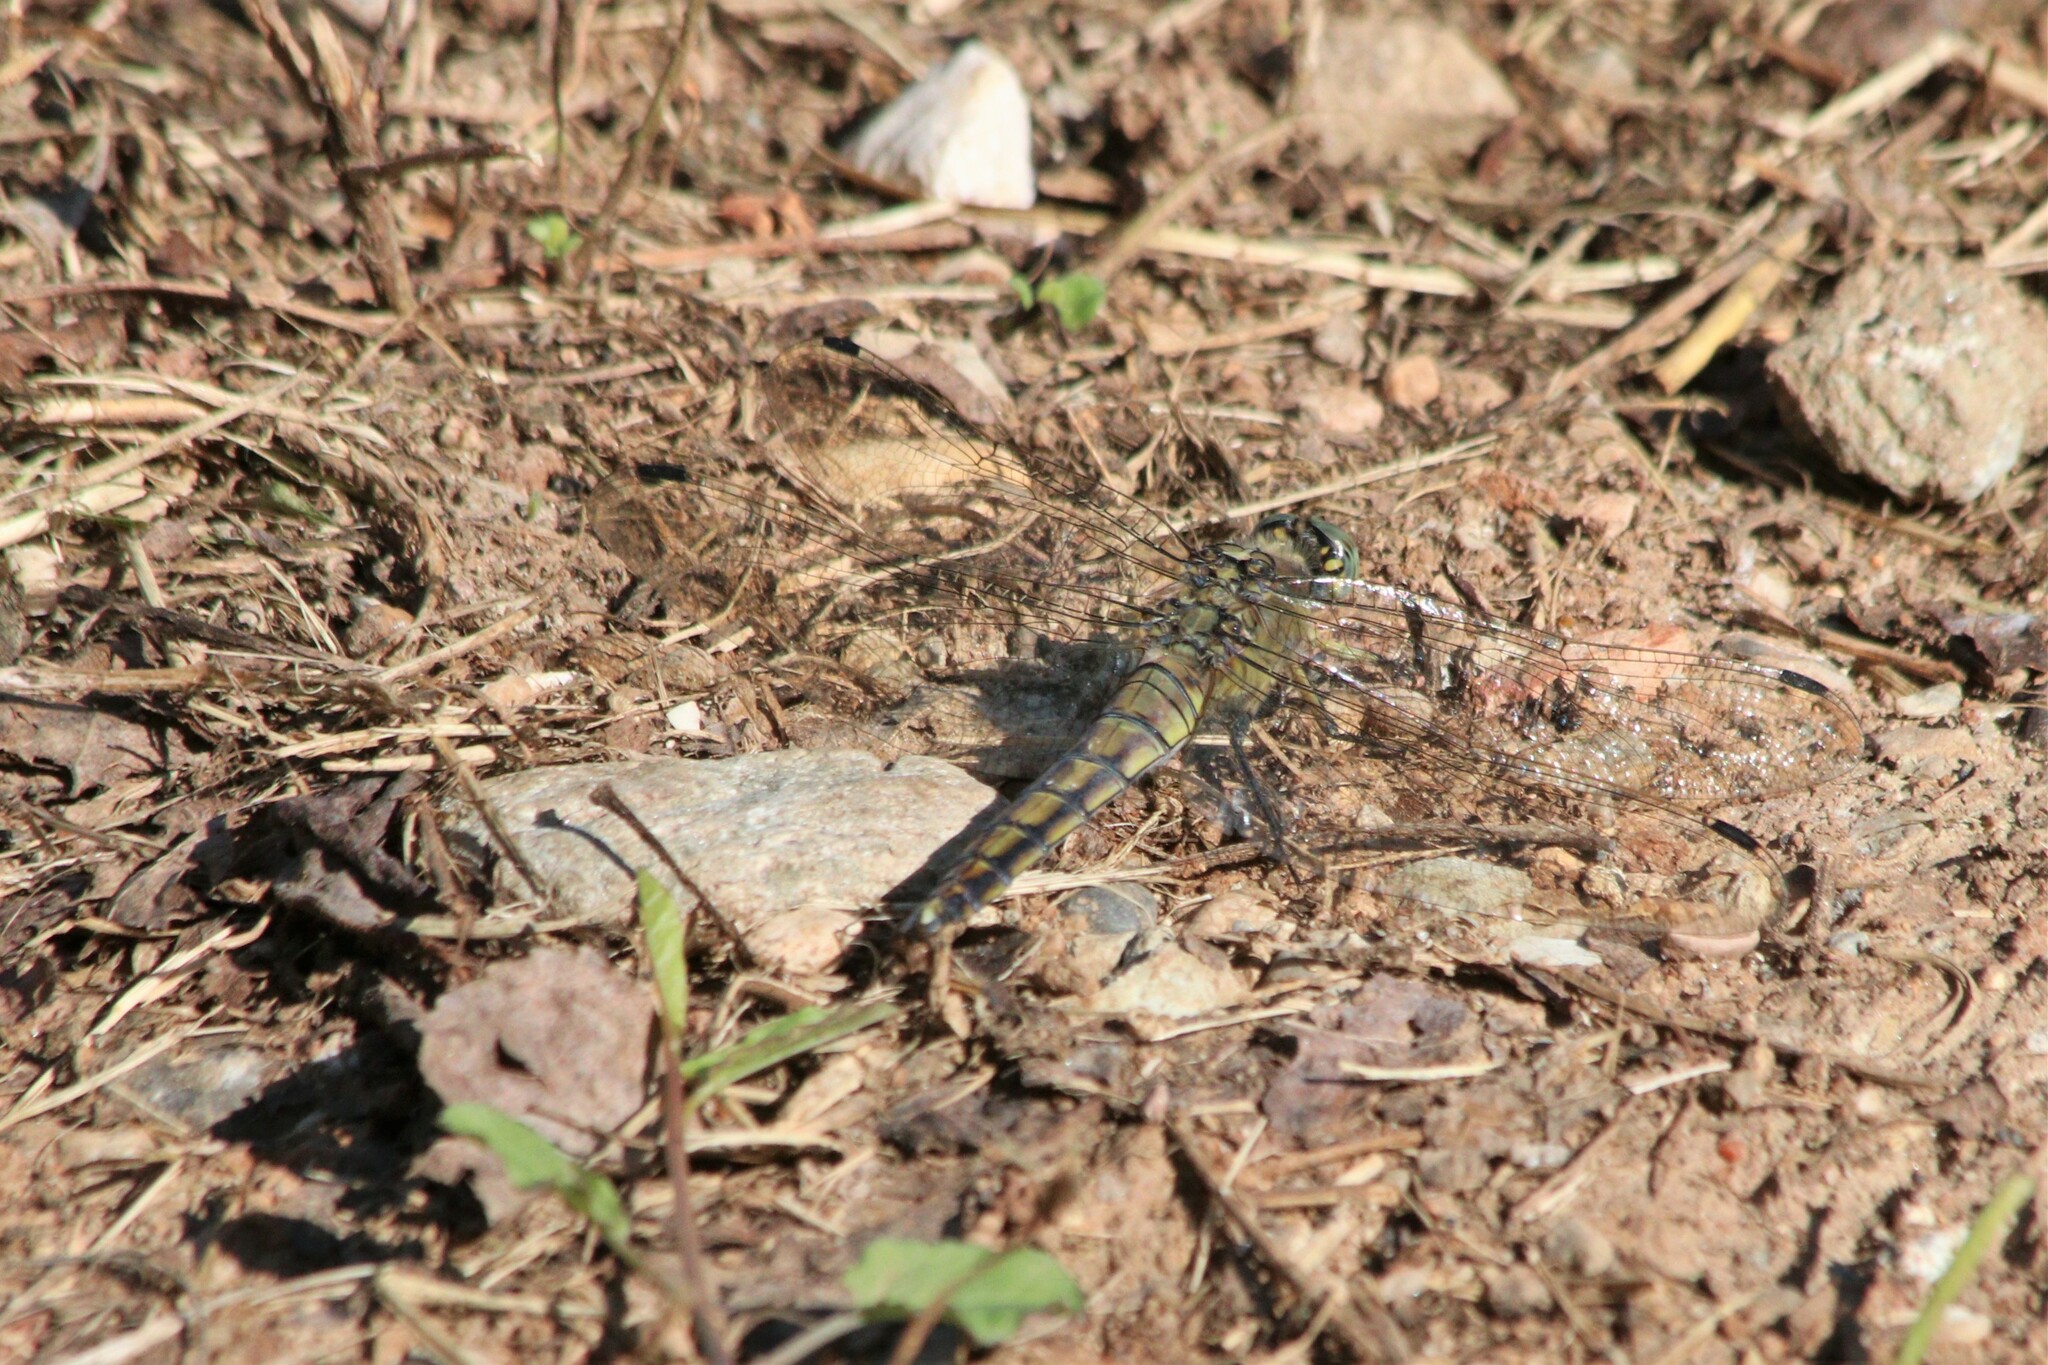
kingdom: Animalia
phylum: Arthropoda
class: Insecta
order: Odonata
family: Libellulidae
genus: Orthetrum
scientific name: Orthetrum cancellatum
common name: Black-tailed skimmer
